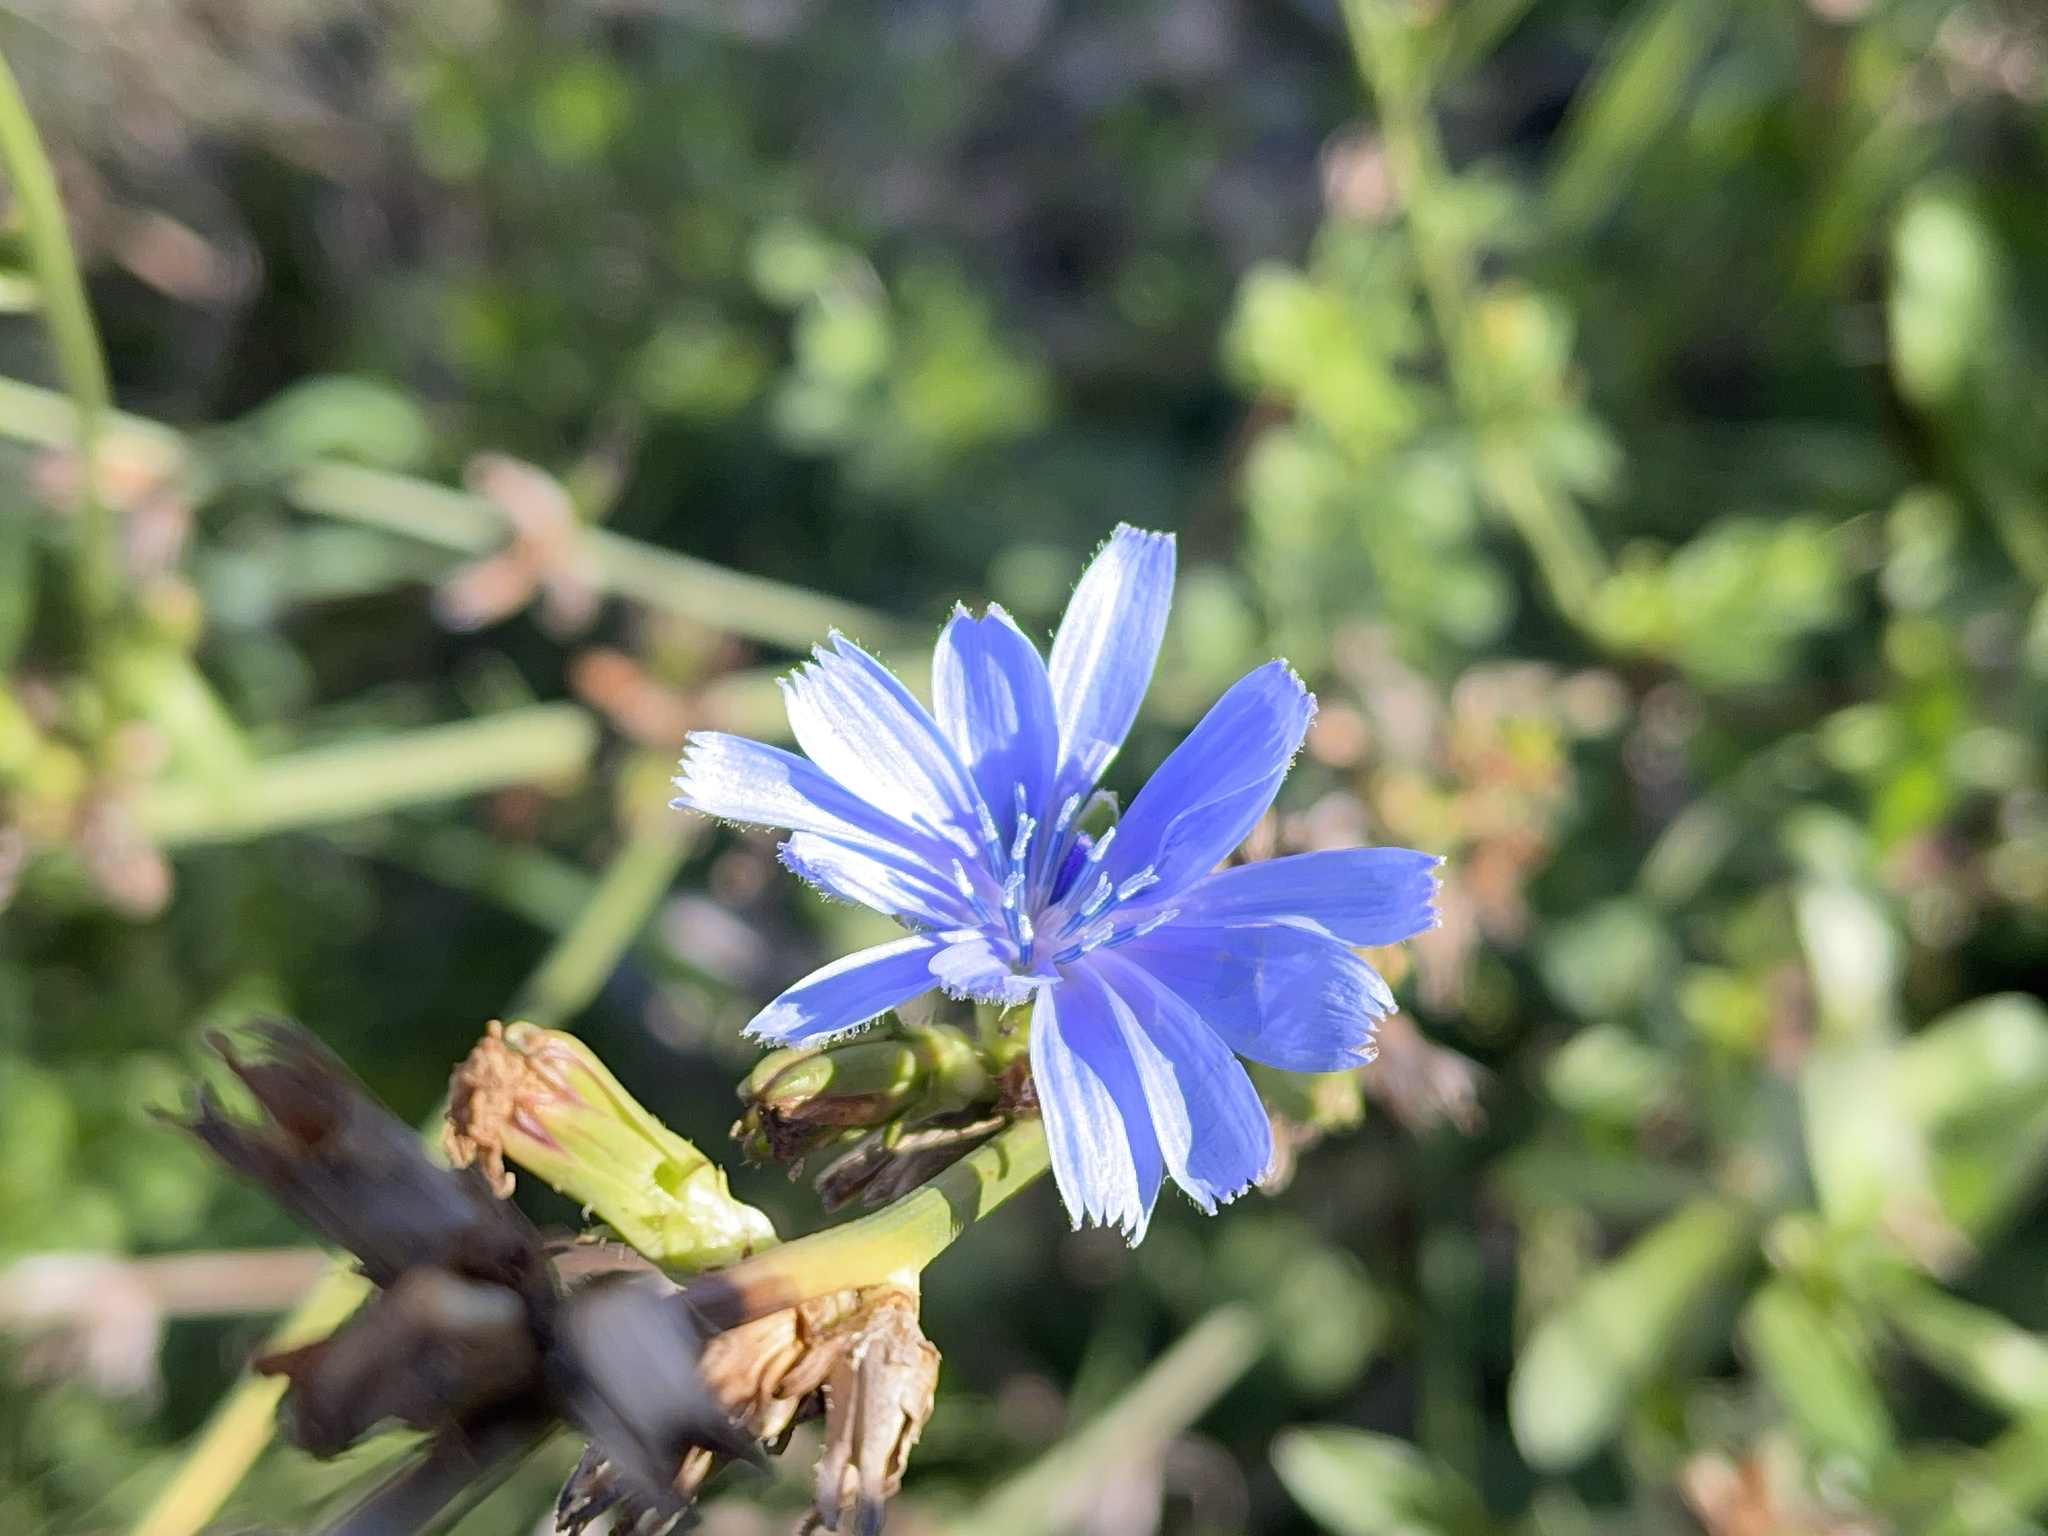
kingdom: Plantae
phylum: Tracheophyta
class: Magnoliopsida
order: Asterales
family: Asteraceae
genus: Cichorium
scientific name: Cichorium intybus
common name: Chicory
